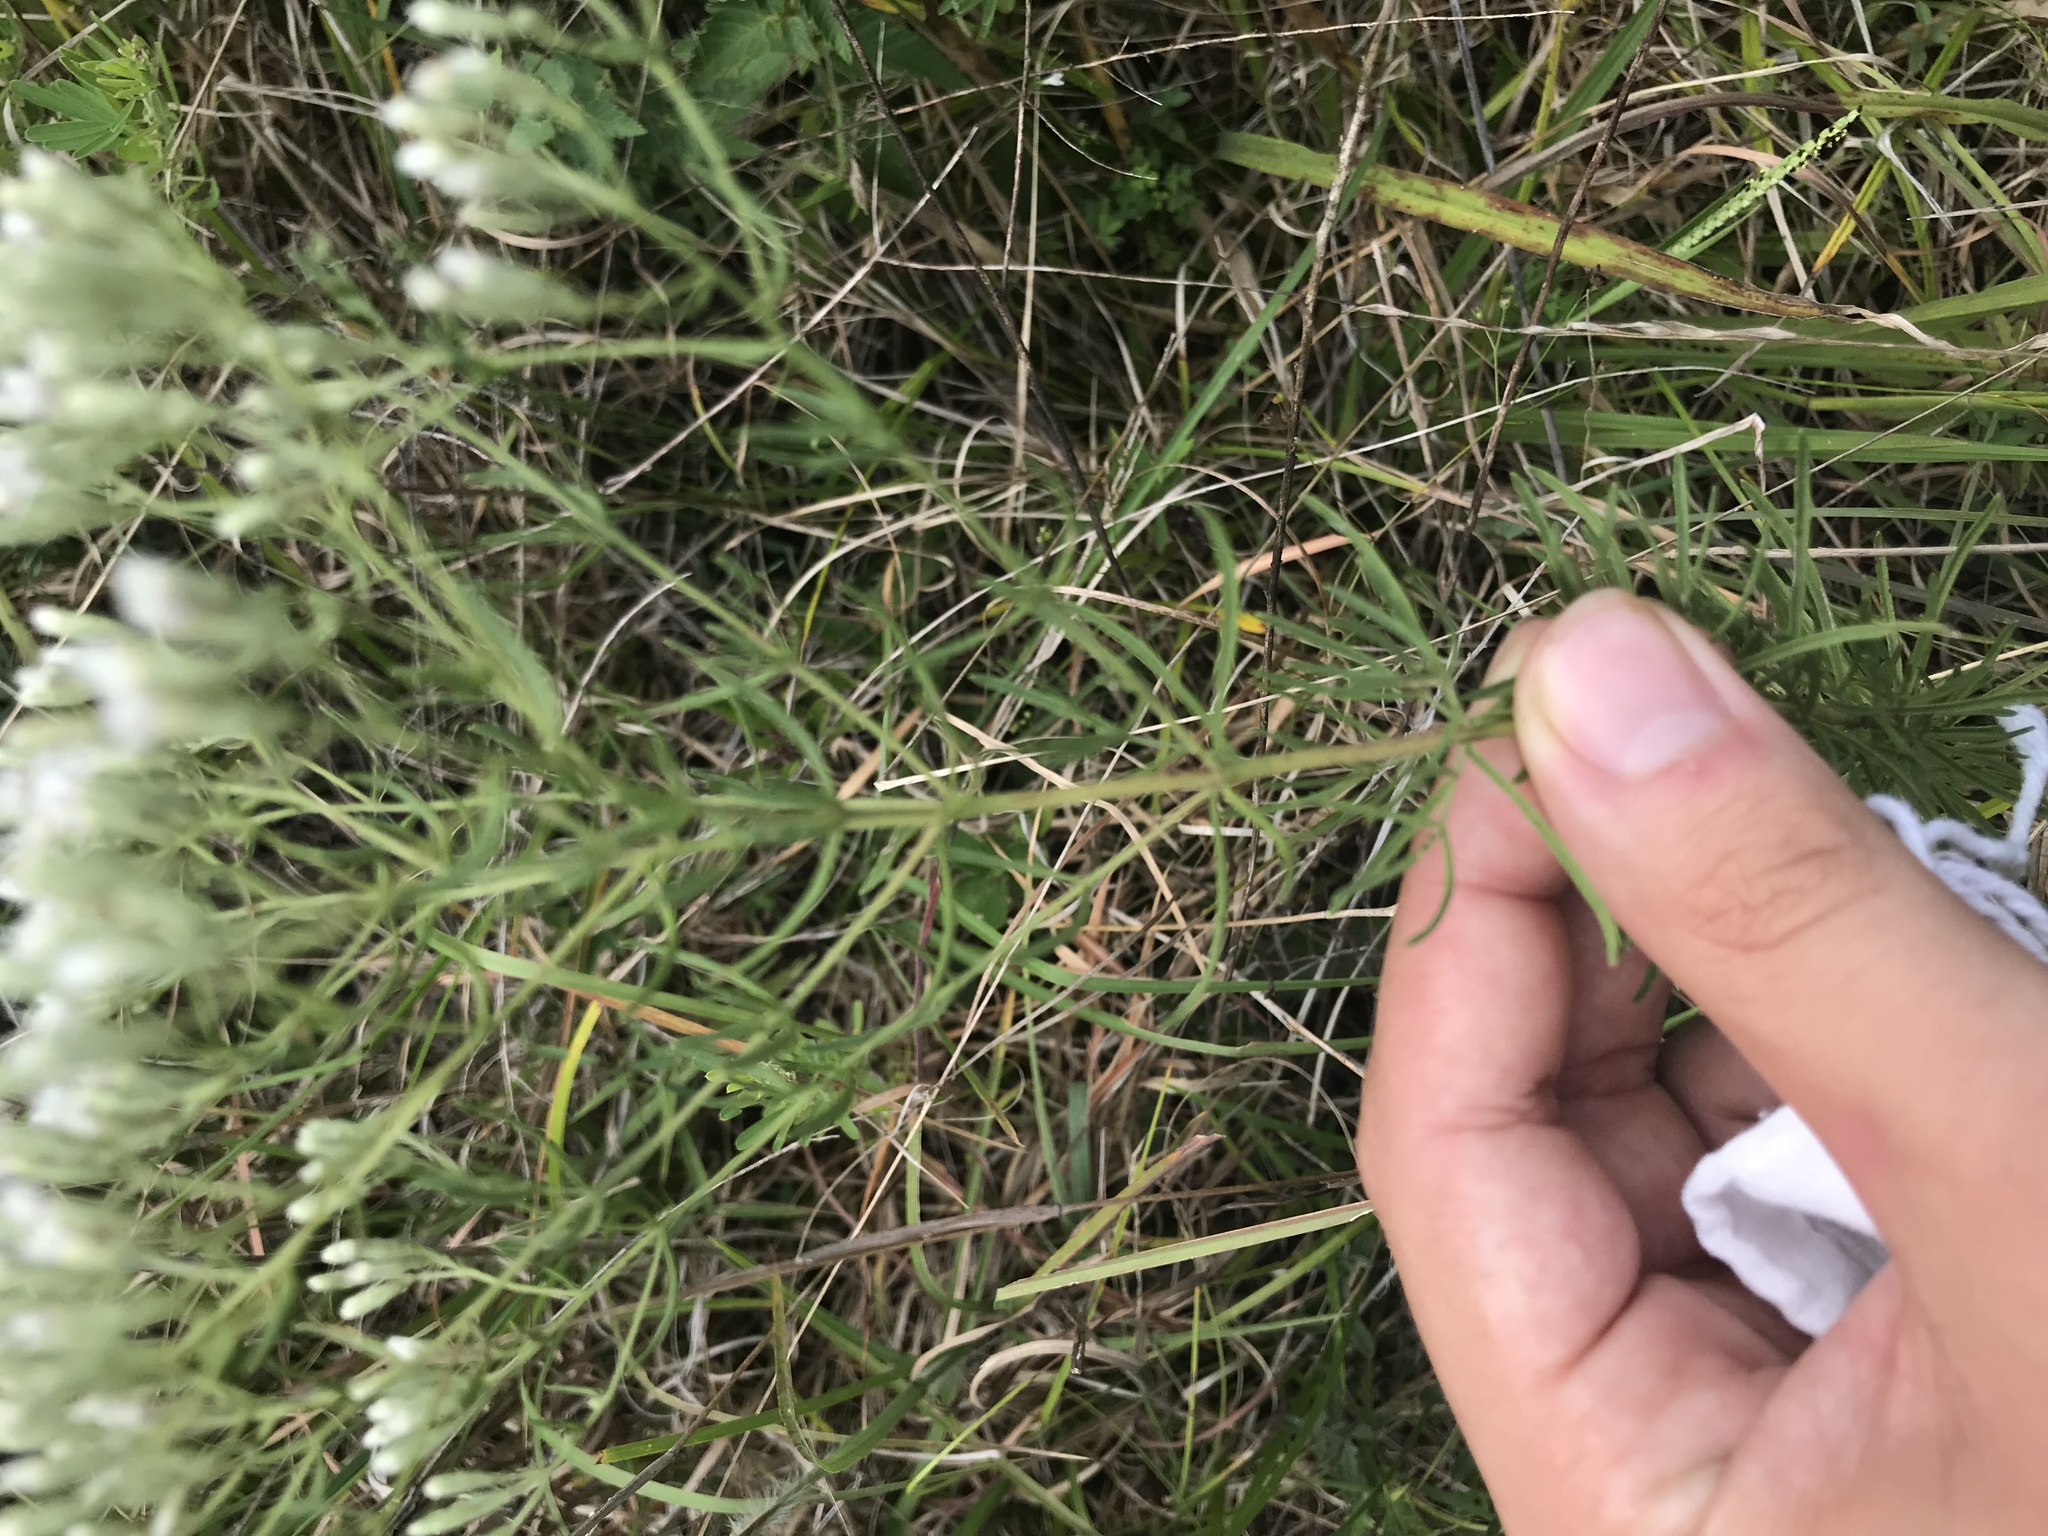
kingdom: Plantae
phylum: Tracheophyta
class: Magnoliopsida
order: Asterales
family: Asteraceae
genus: Eupatorium
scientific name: Eupatorium hyssopifolium
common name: Hyssop-leaf thoroughwort
